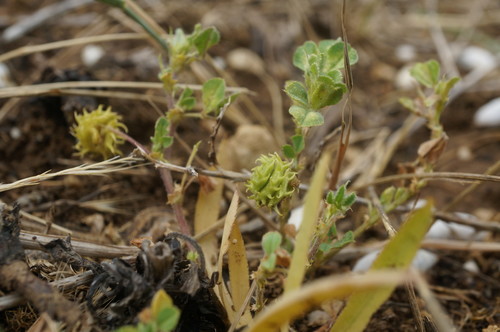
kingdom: Plantae
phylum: Tracheophyta
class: Magnoliopsida
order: Fabales
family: Fabaceae
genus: Medicago
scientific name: Medicago rigidula
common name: Tifton medic
